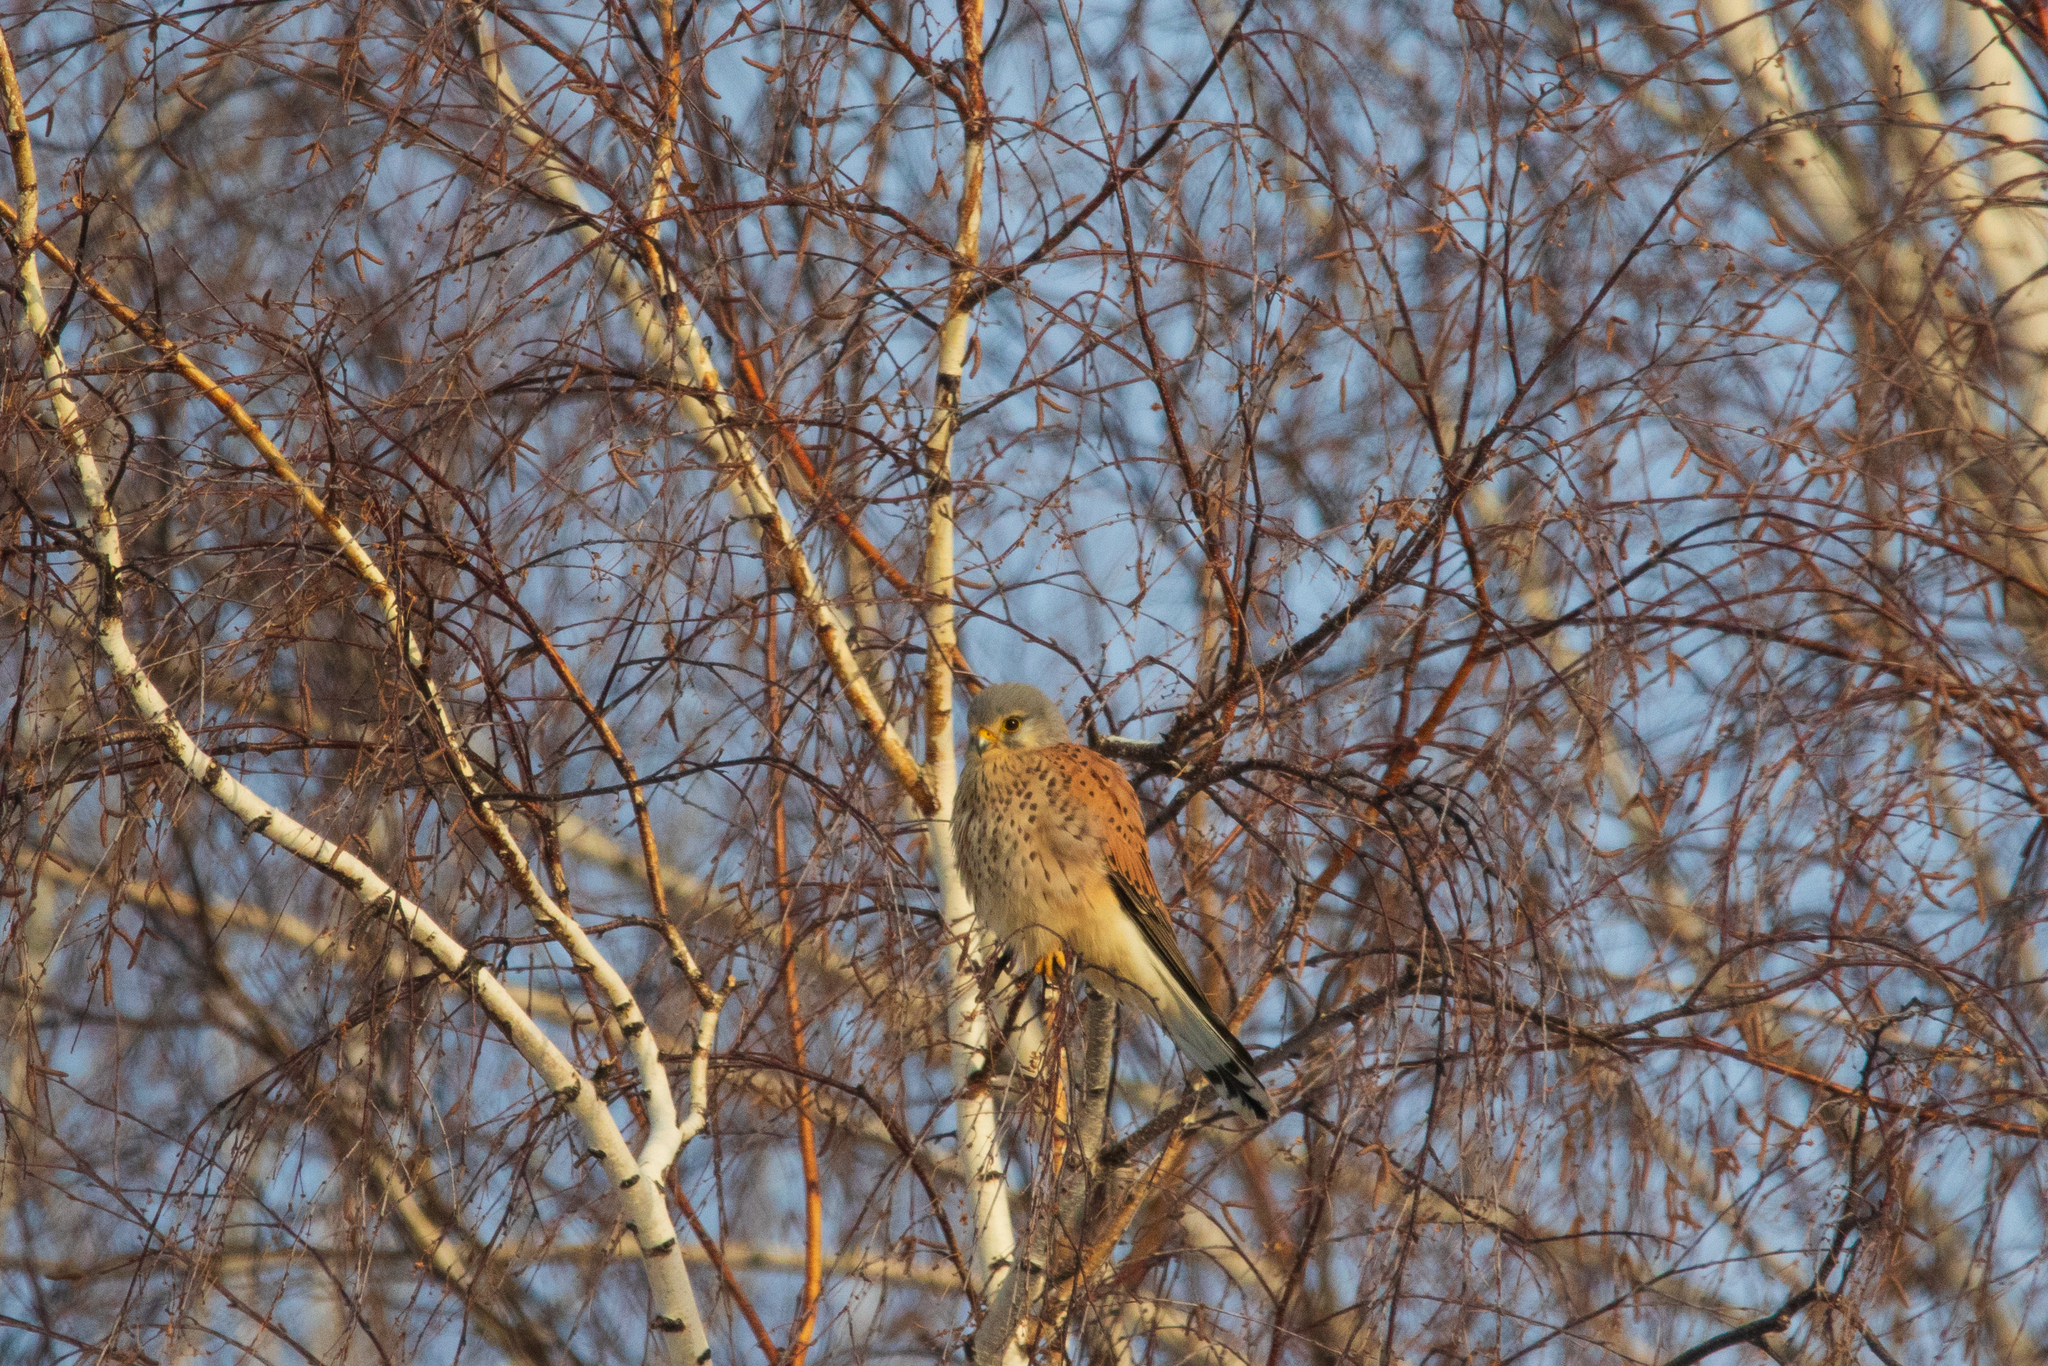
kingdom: Animalia
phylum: Chordata
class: Aves
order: Falconiformes
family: Falconidae
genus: Falco
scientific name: Falco tinnunculus
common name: Common kestrel
